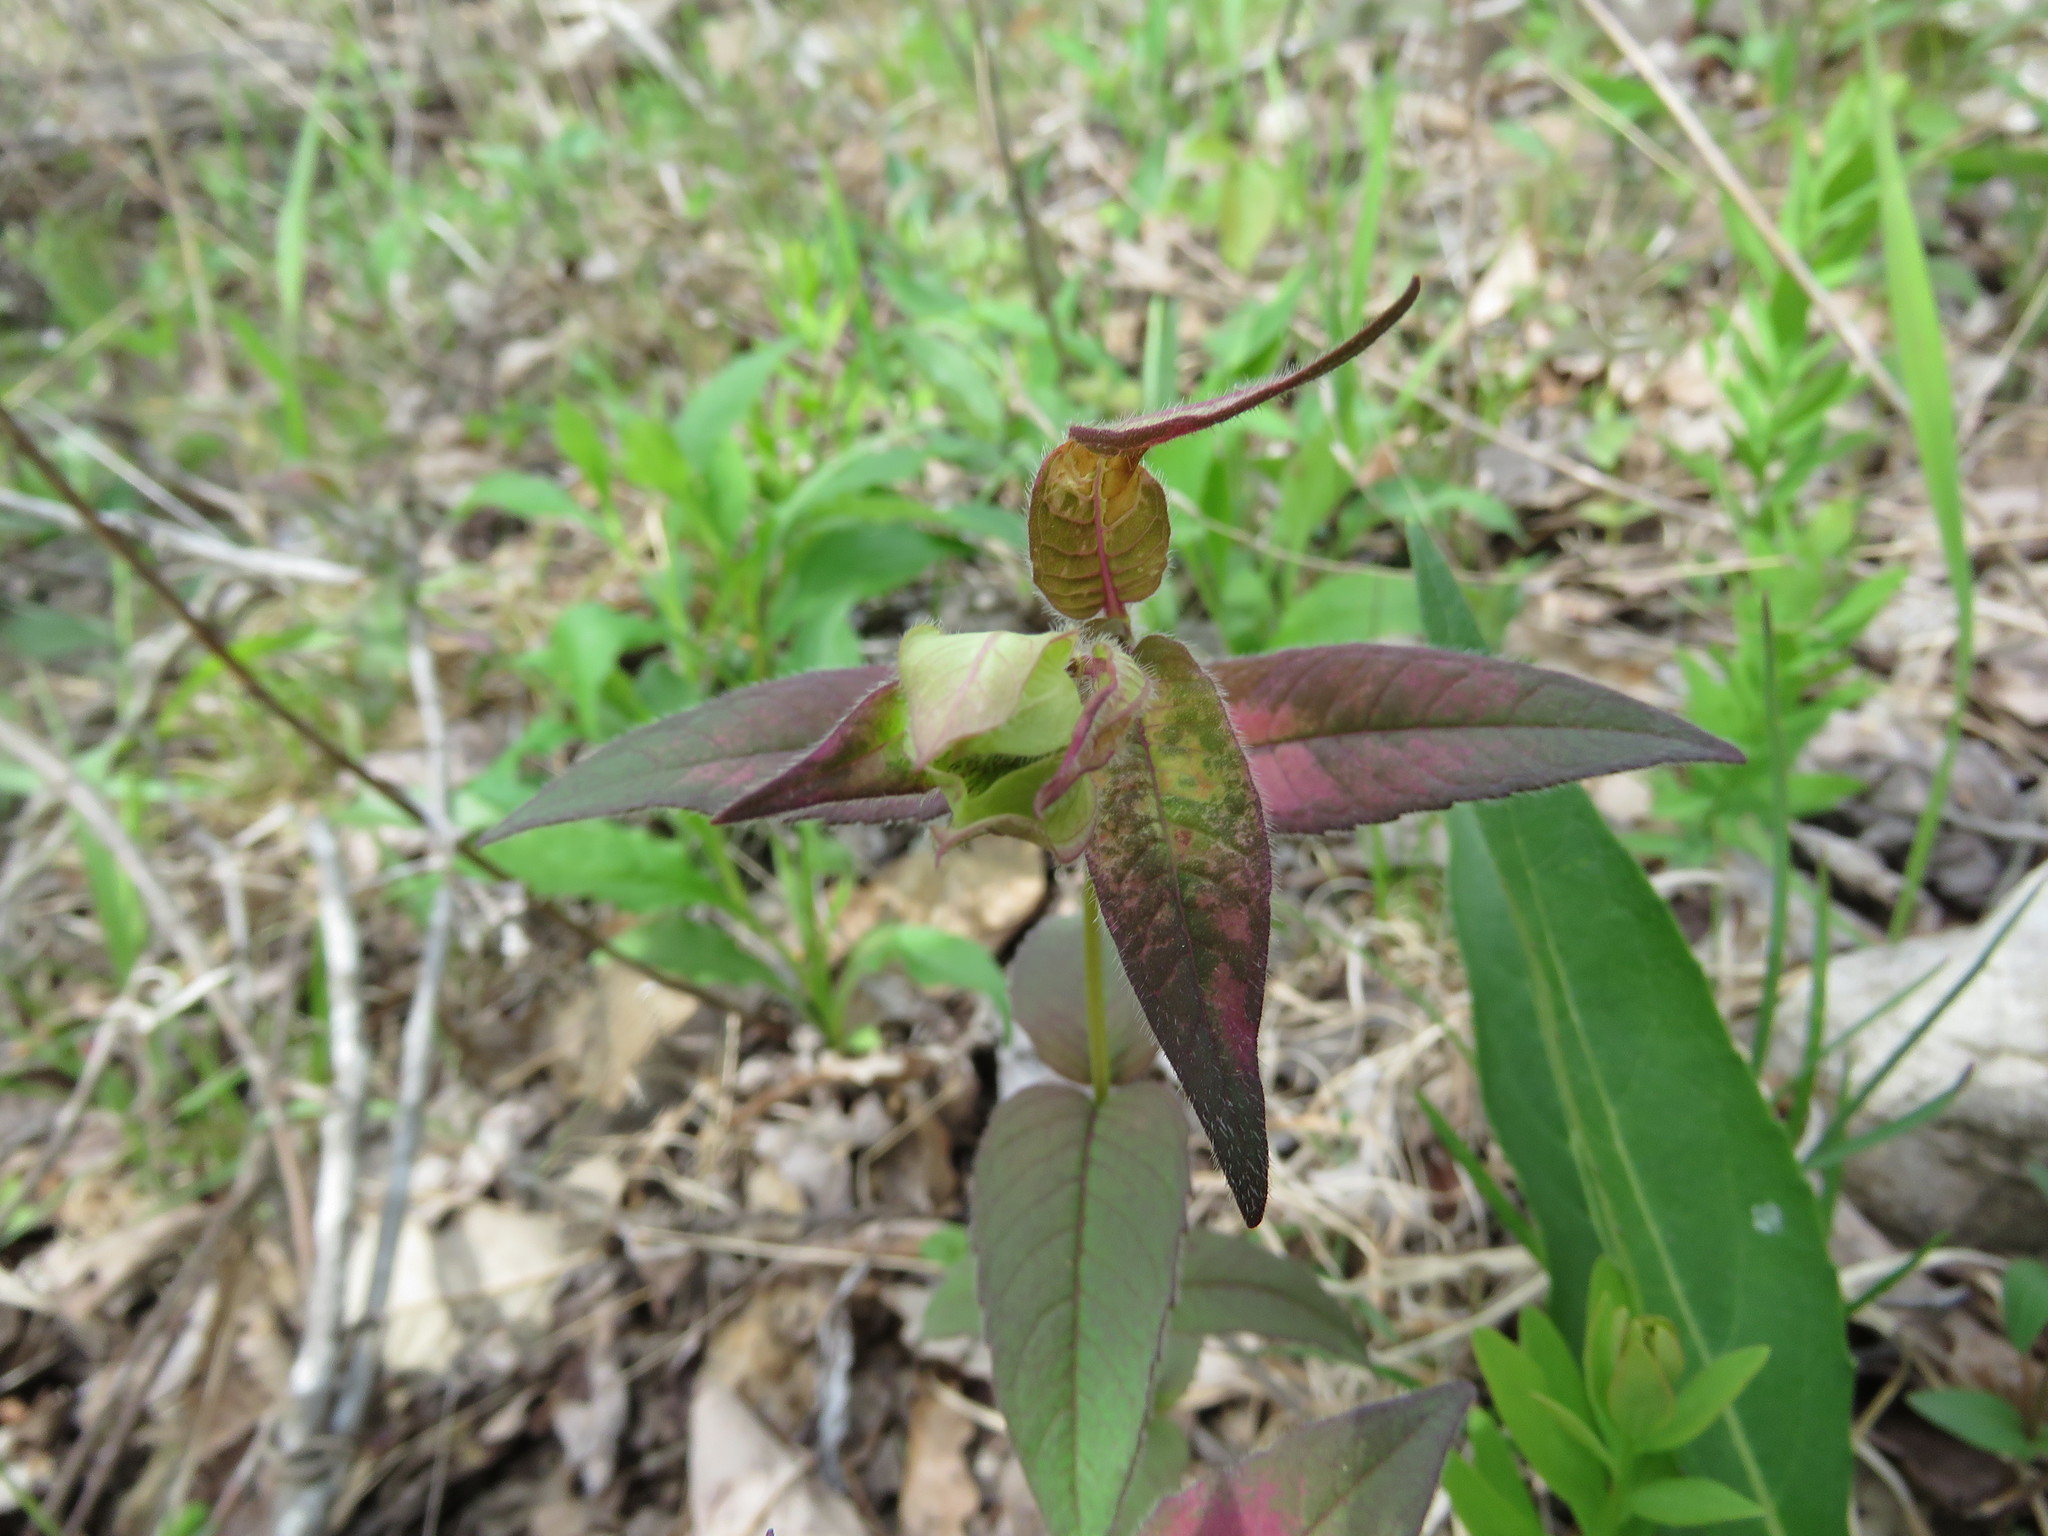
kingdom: Plantae
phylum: Tracheophyta
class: Magnoliopsida
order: Lamiales
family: Lamiaceae
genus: Monarda
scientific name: Monarda bradburiana
